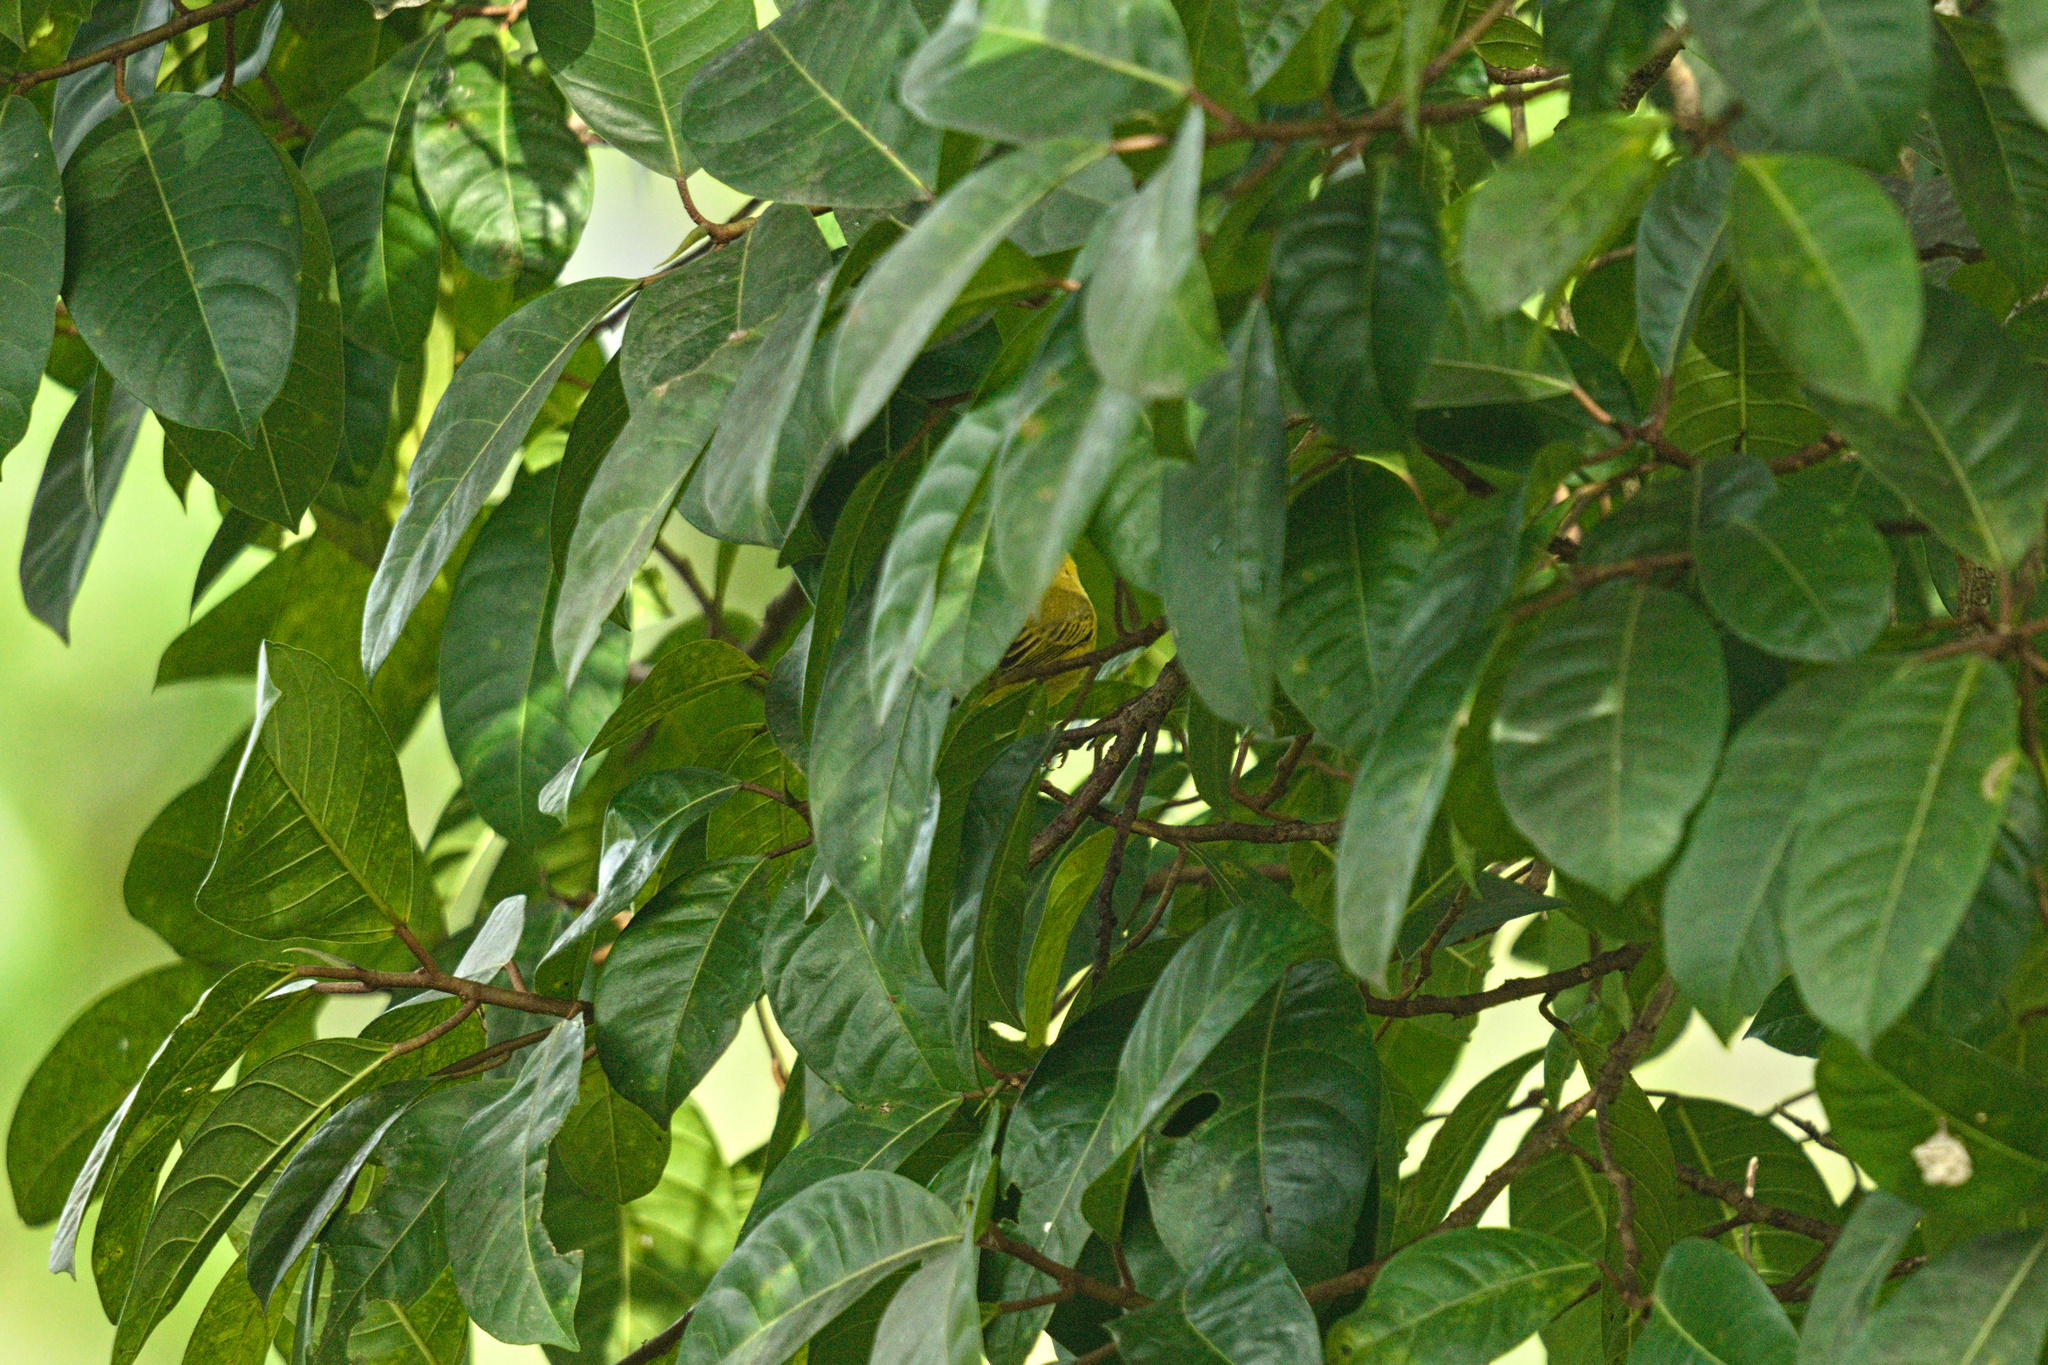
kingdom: Animalia
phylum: Chordata
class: Aves
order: Passeriformes
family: Parulidae
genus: Setophaga
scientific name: Setophaga petechia
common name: Yellow warbler
